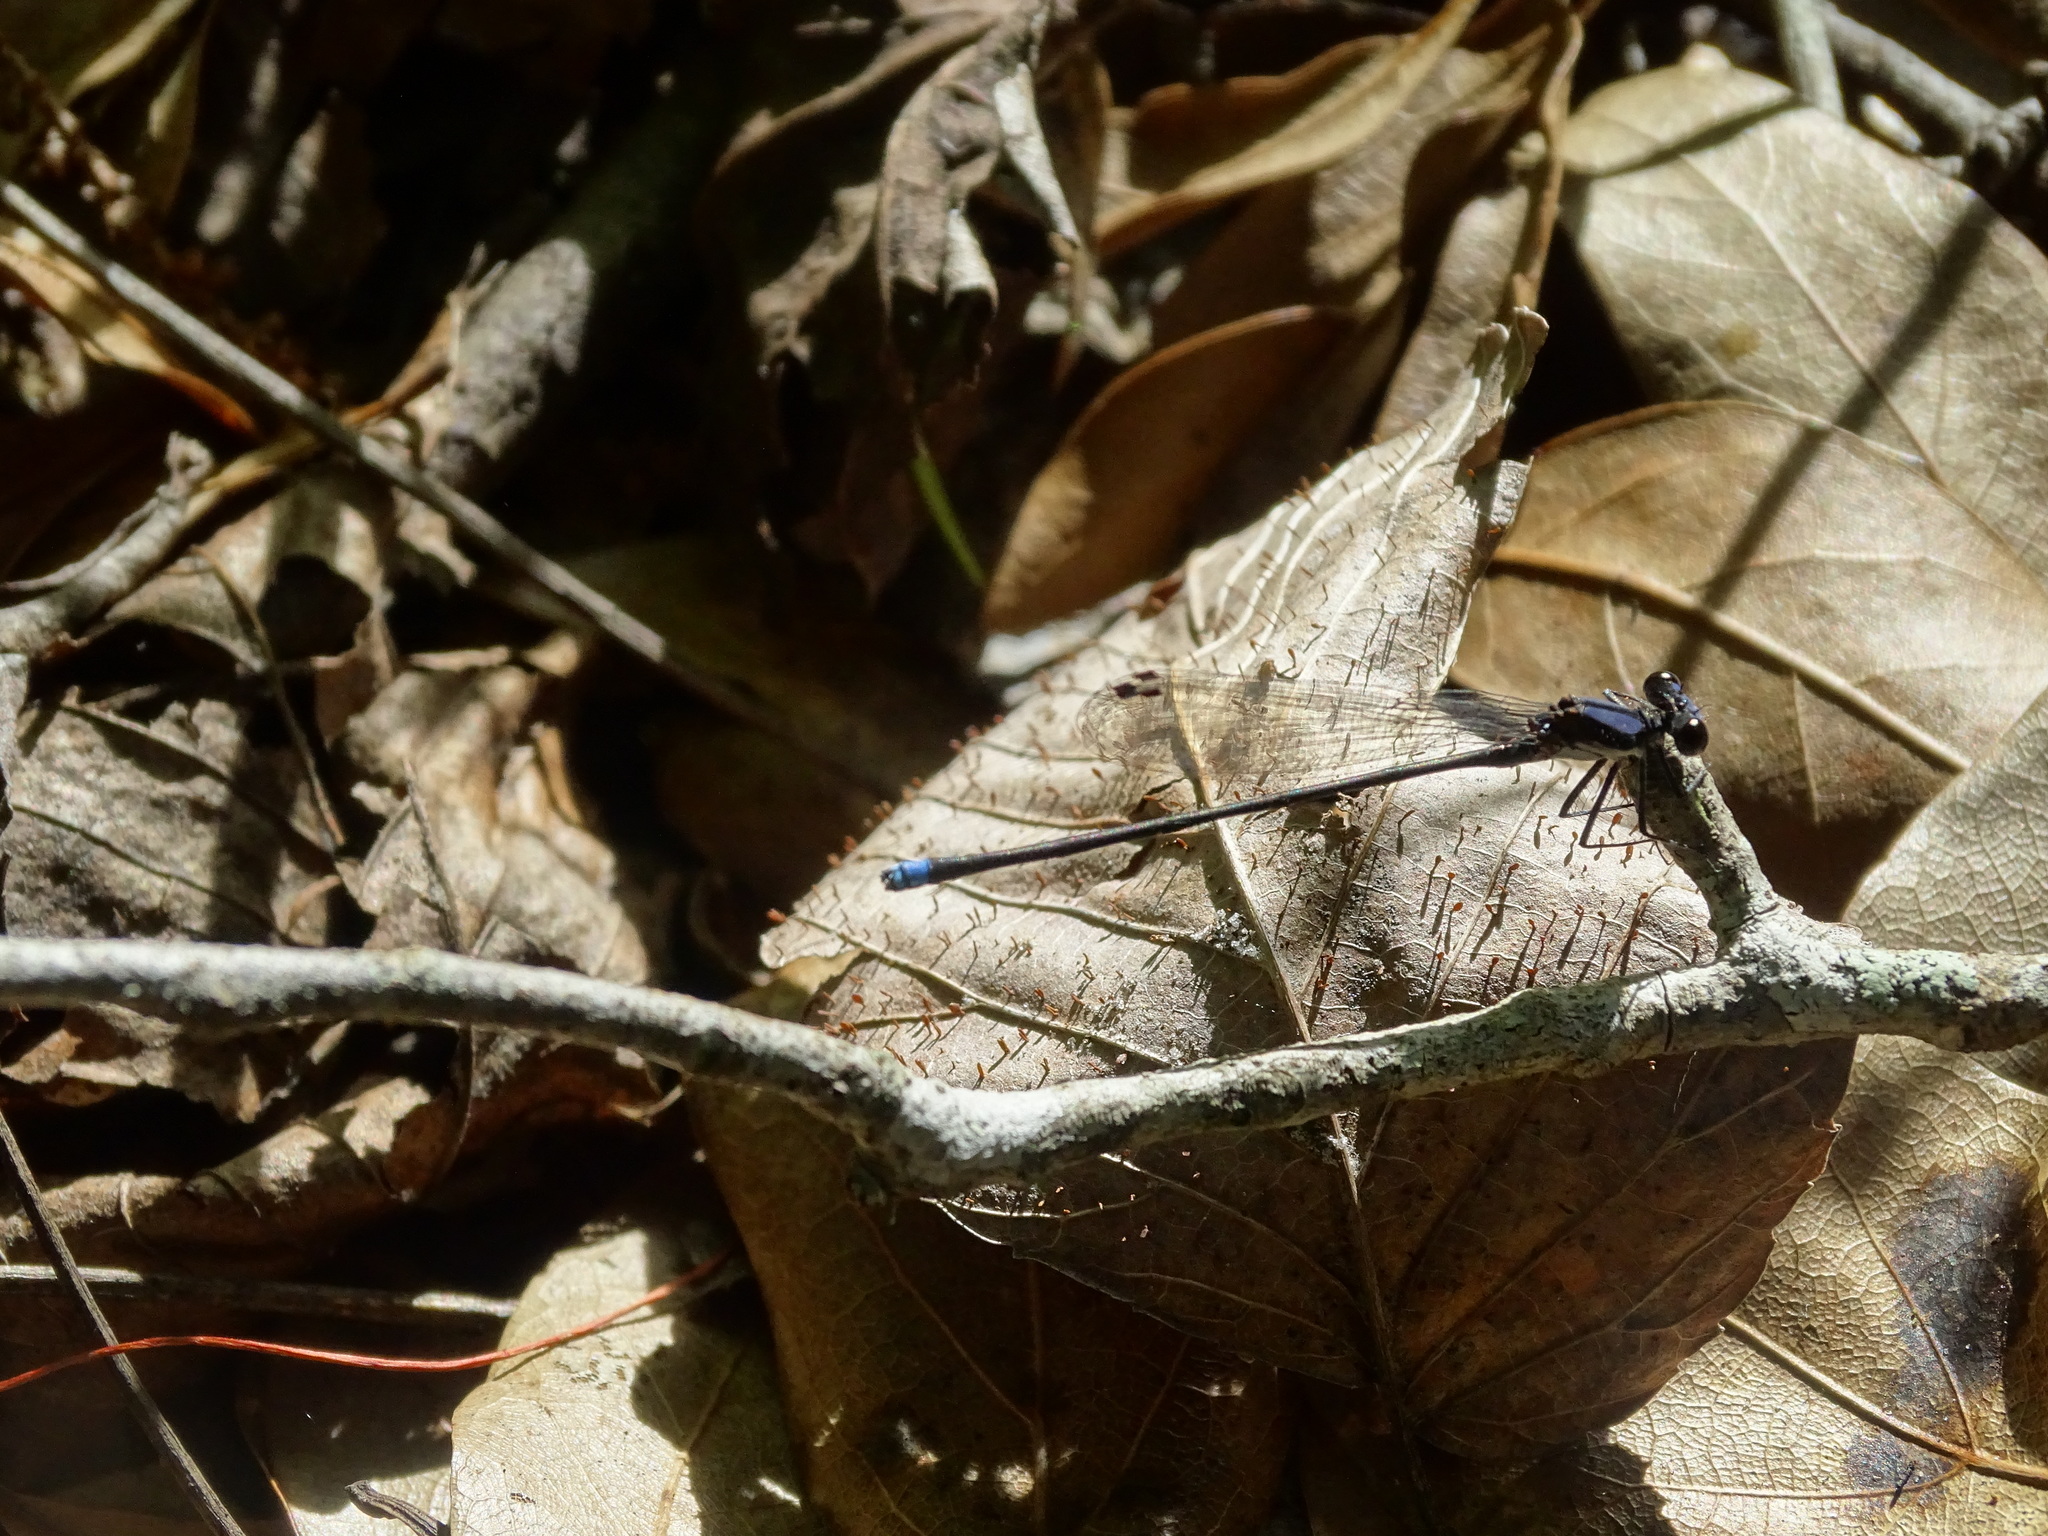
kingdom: Animalia
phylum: Arthropoda
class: Insecta
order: Odonata
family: Coenagrionidae
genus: Argia
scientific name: Argia tibialis
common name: Blue-tipped dancer
